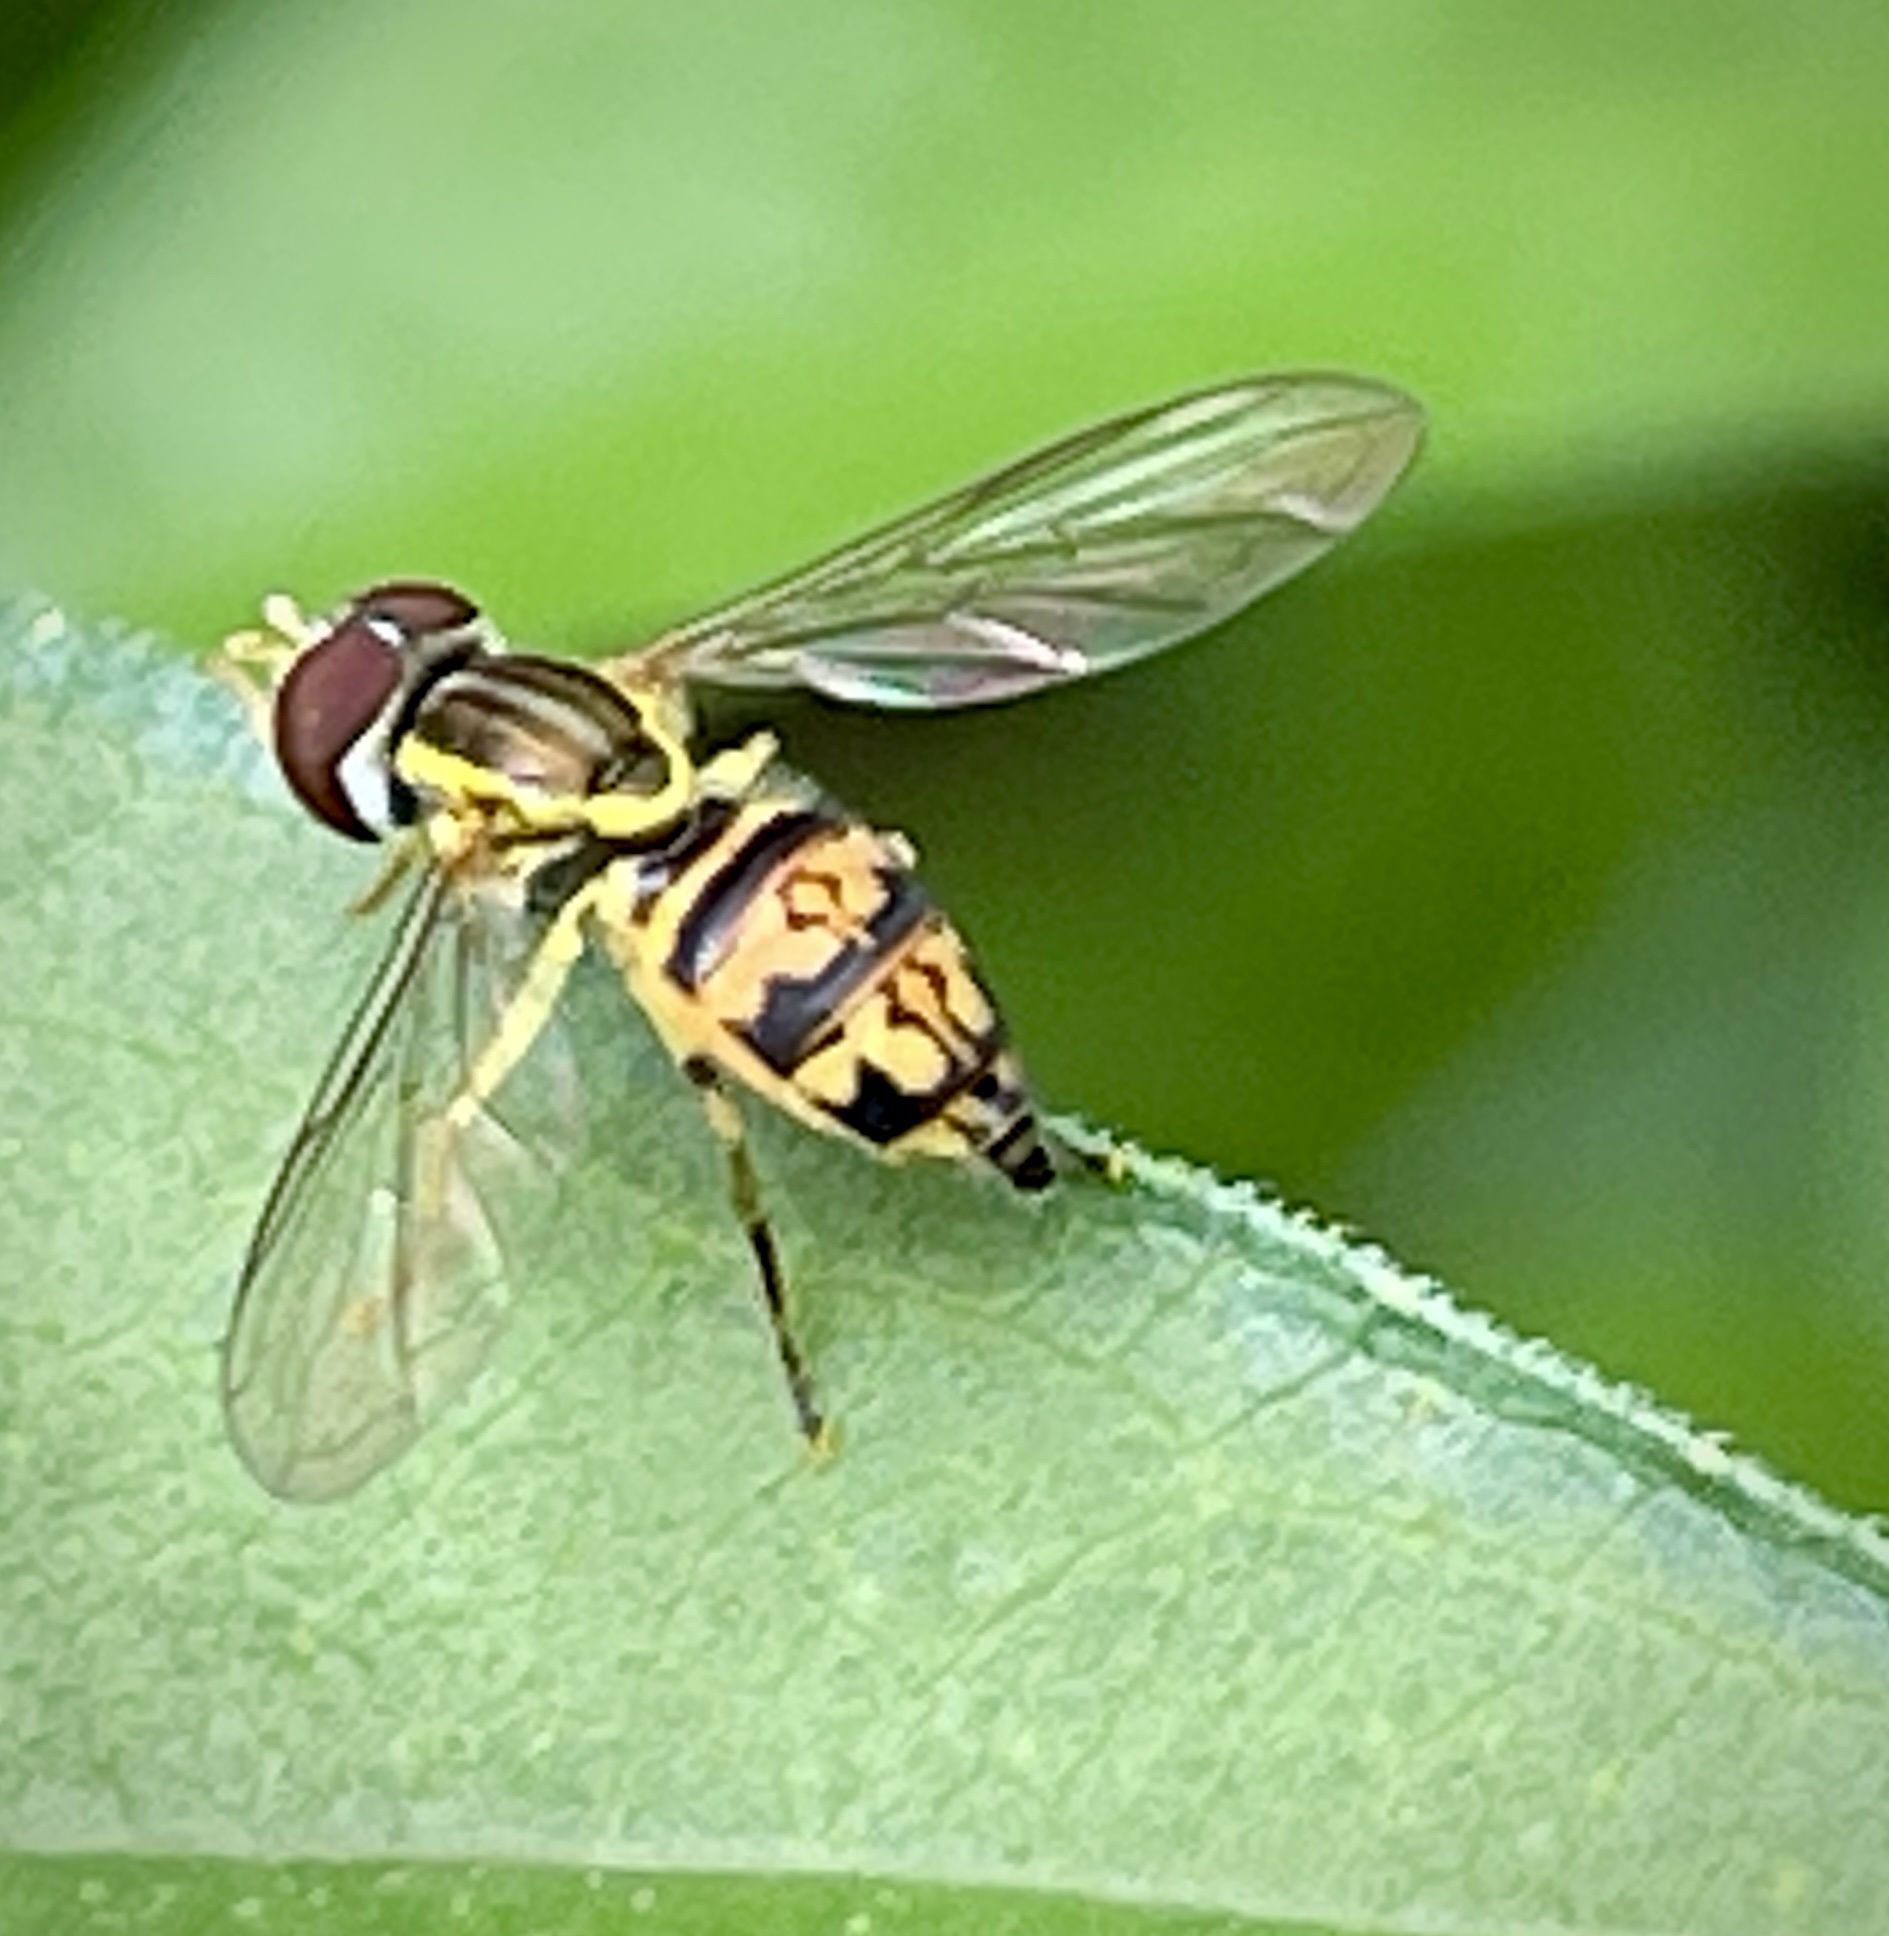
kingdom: Animalia
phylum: Arthropoda
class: Insecta
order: Diptera
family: Syrphidae
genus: Toxomerus
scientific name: Toxomerus geminatus
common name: Eastern calligrapher
